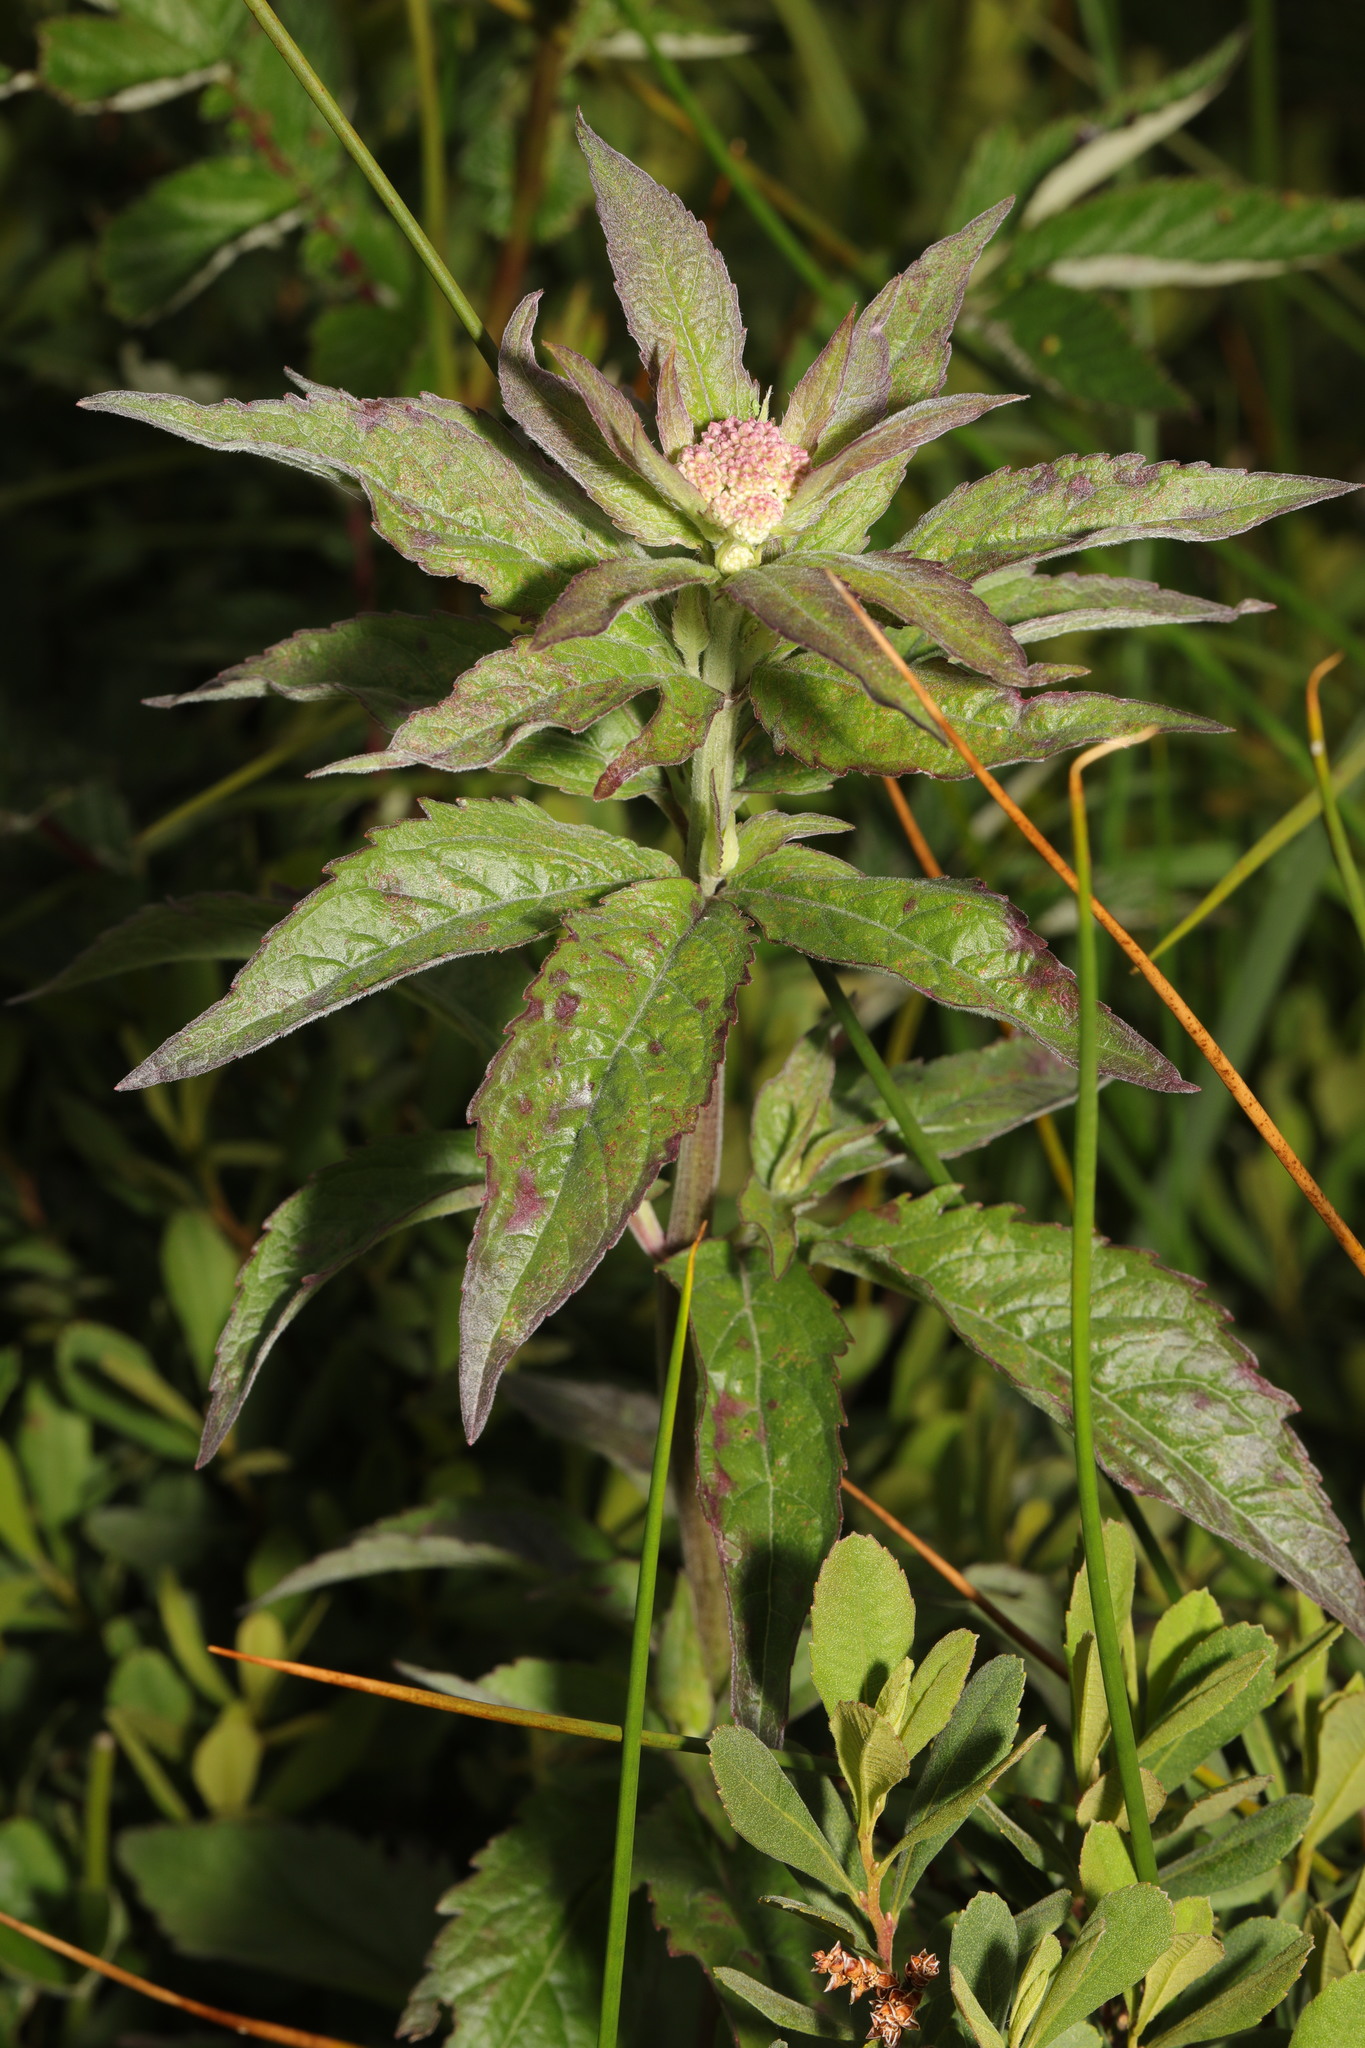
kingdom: Plantae
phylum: Tracheophyta
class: Magnoliopsida
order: Asterales
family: Asteraceae
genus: Eupatorium
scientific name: Eupatorium cannabinum
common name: Hemp-agrimony
